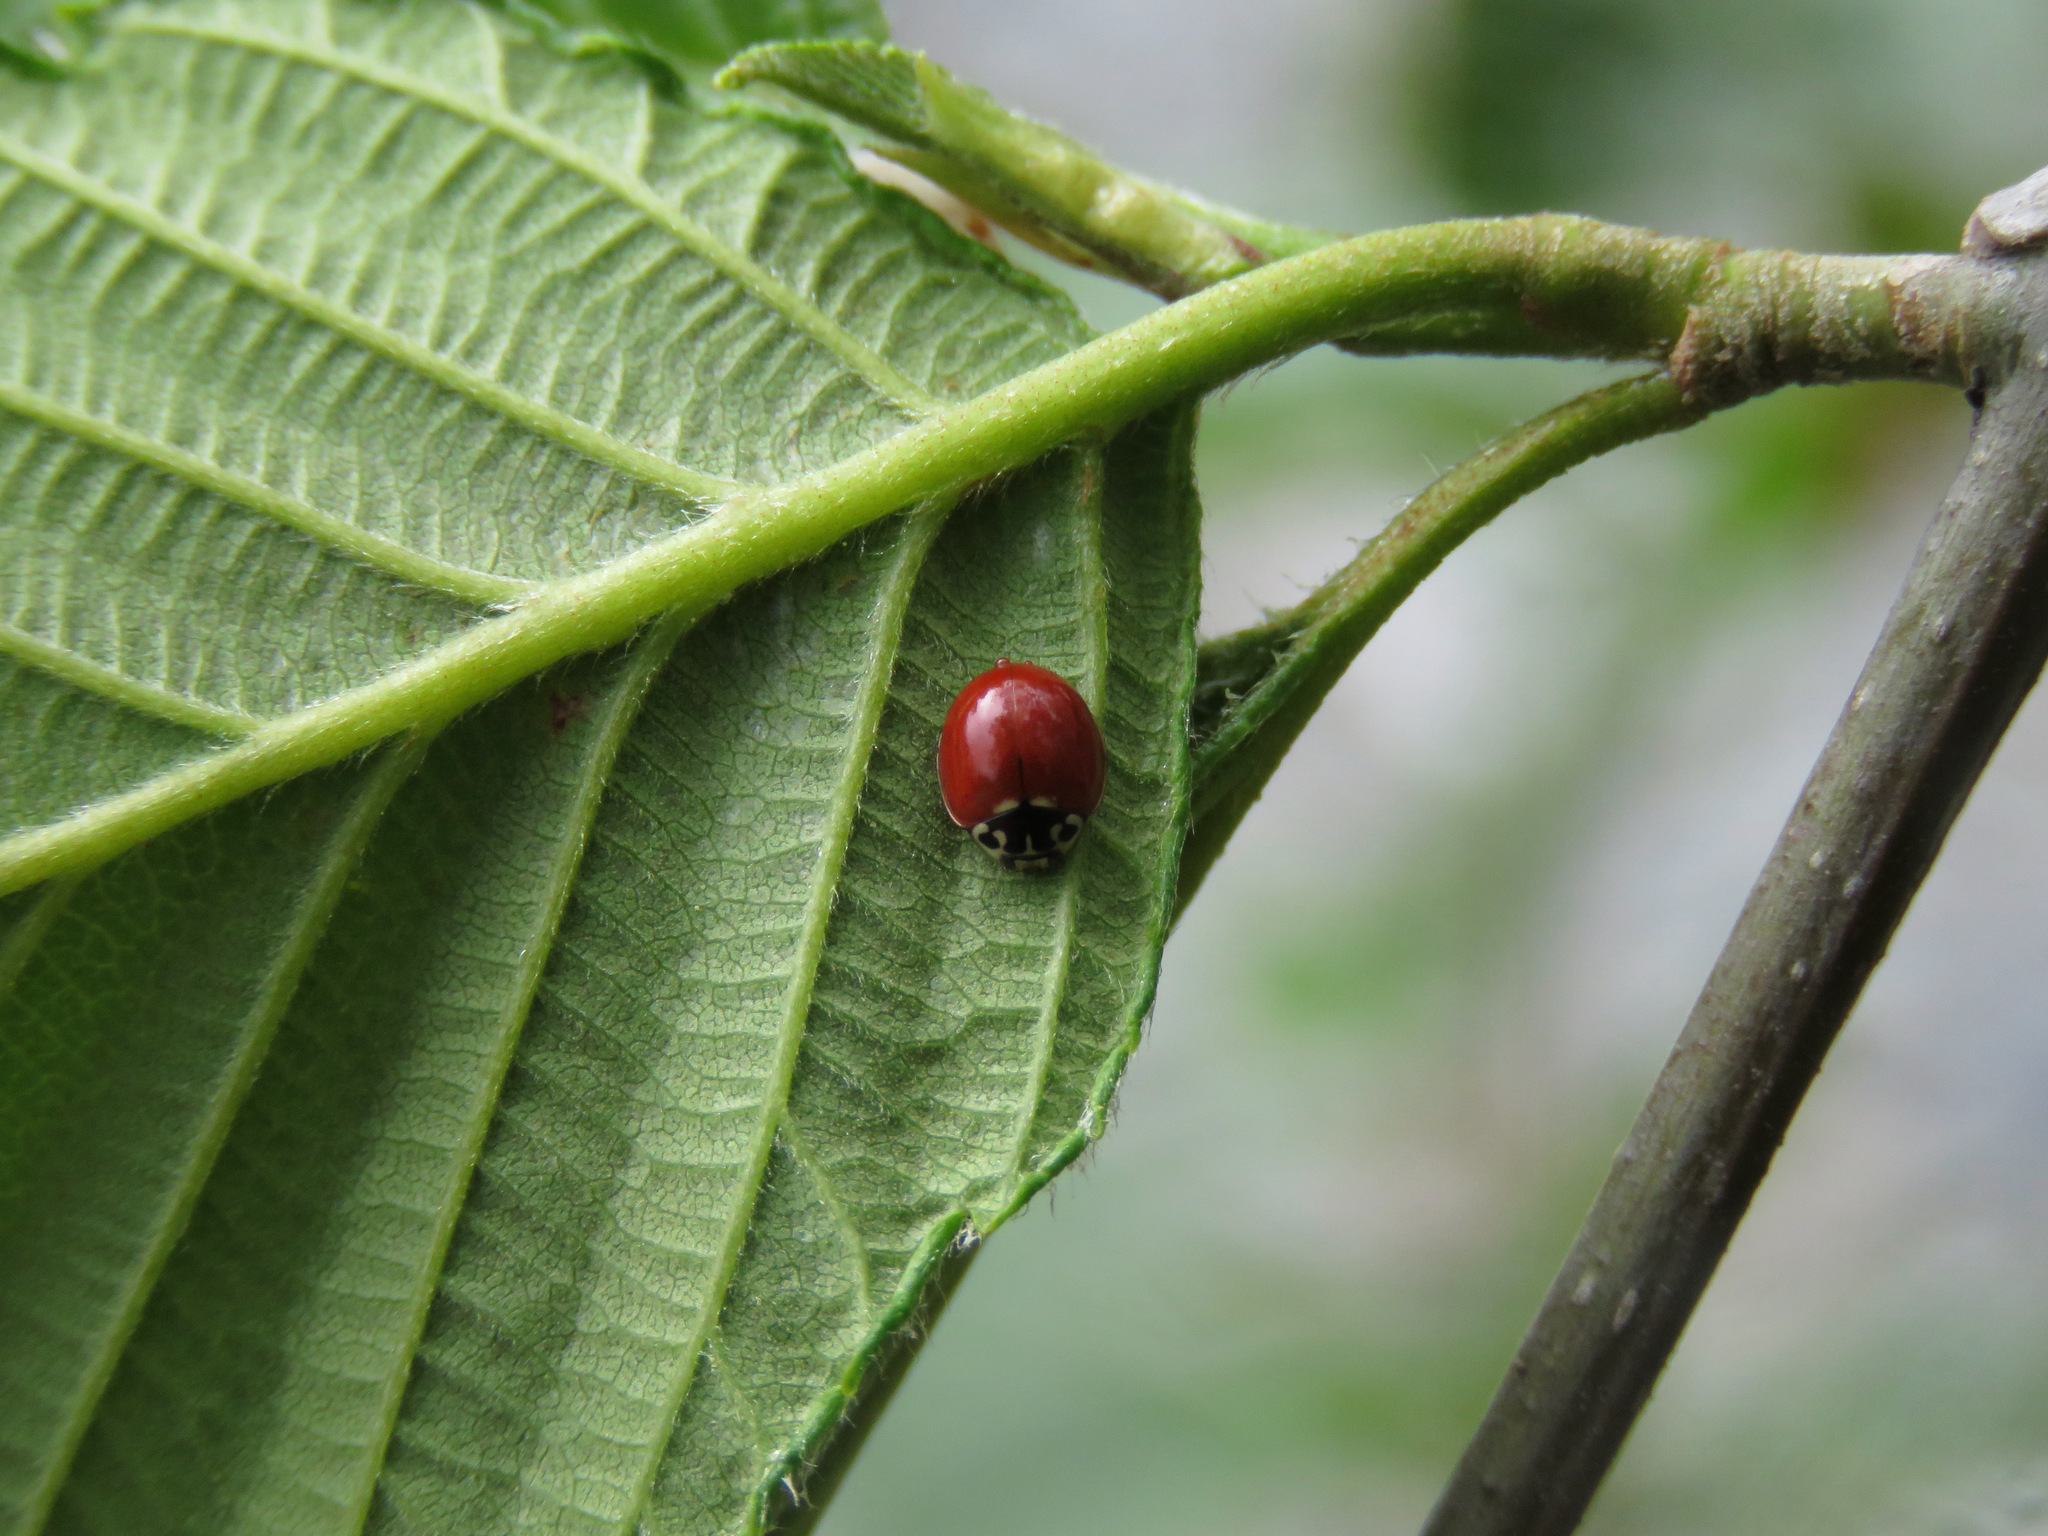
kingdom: Animalia
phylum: Arthropoda
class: Insecta
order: Coleoptera
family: Coccinellidae
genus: Cycloneda
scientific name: Cycloneda polita
